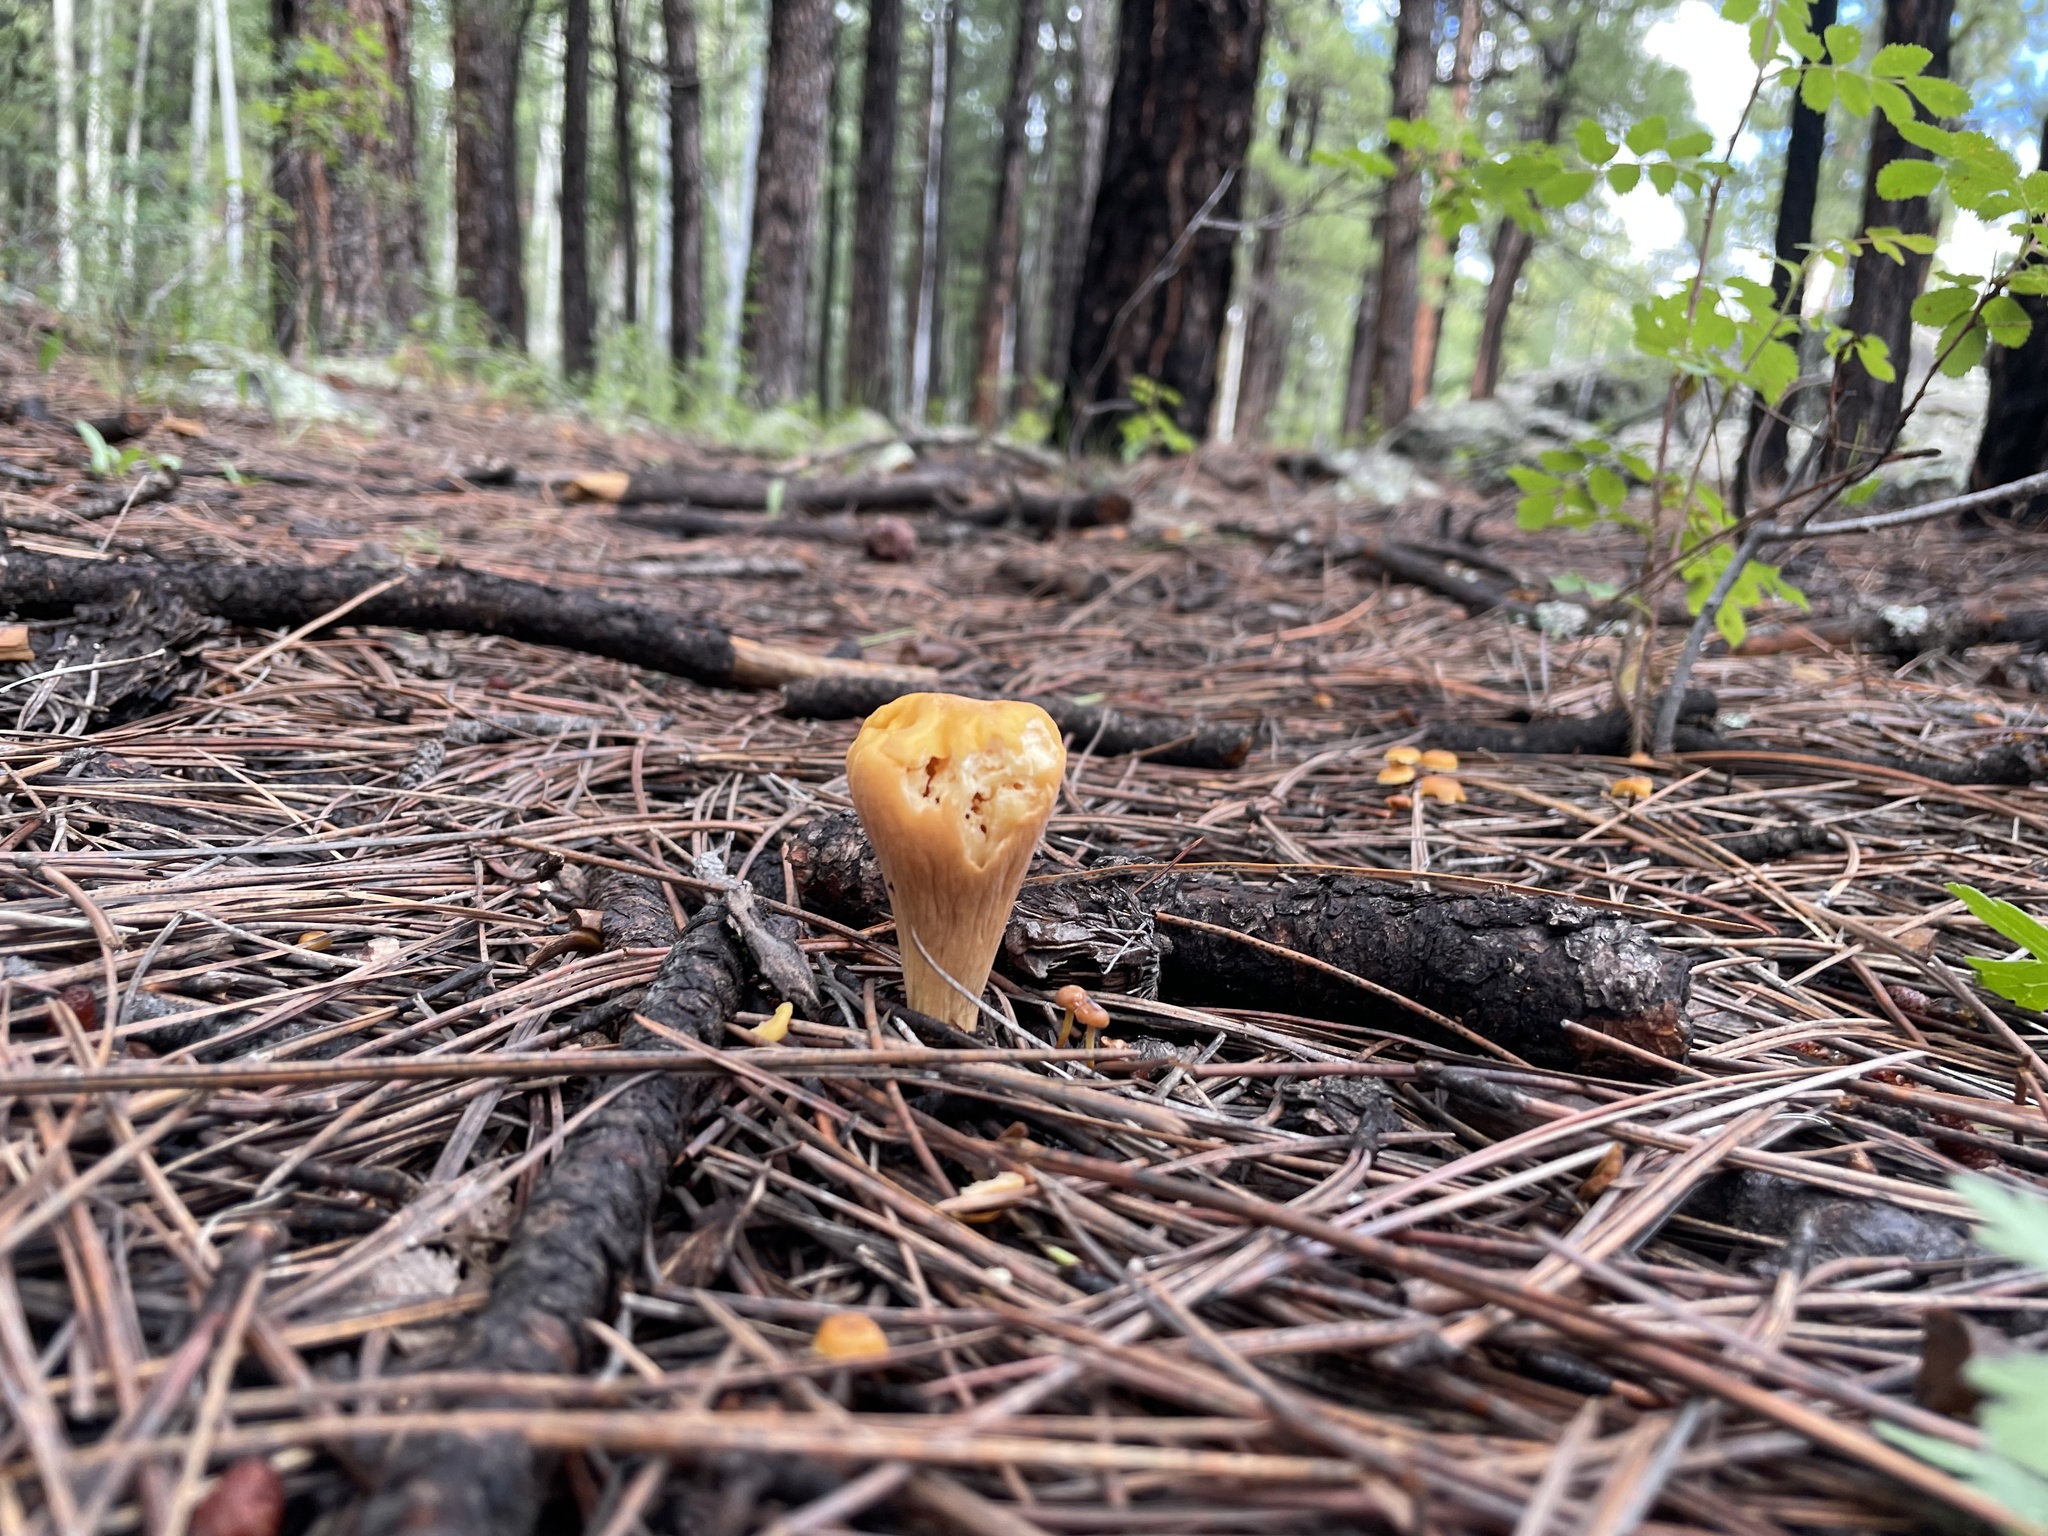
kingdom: Fungi
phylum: Basidiomycota
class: Agaricomycetes
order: Gomphales
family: Clavariadelphaceae
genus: Clavariadelphus
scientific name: Clavariadelphus truncatus
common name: Truncated club
